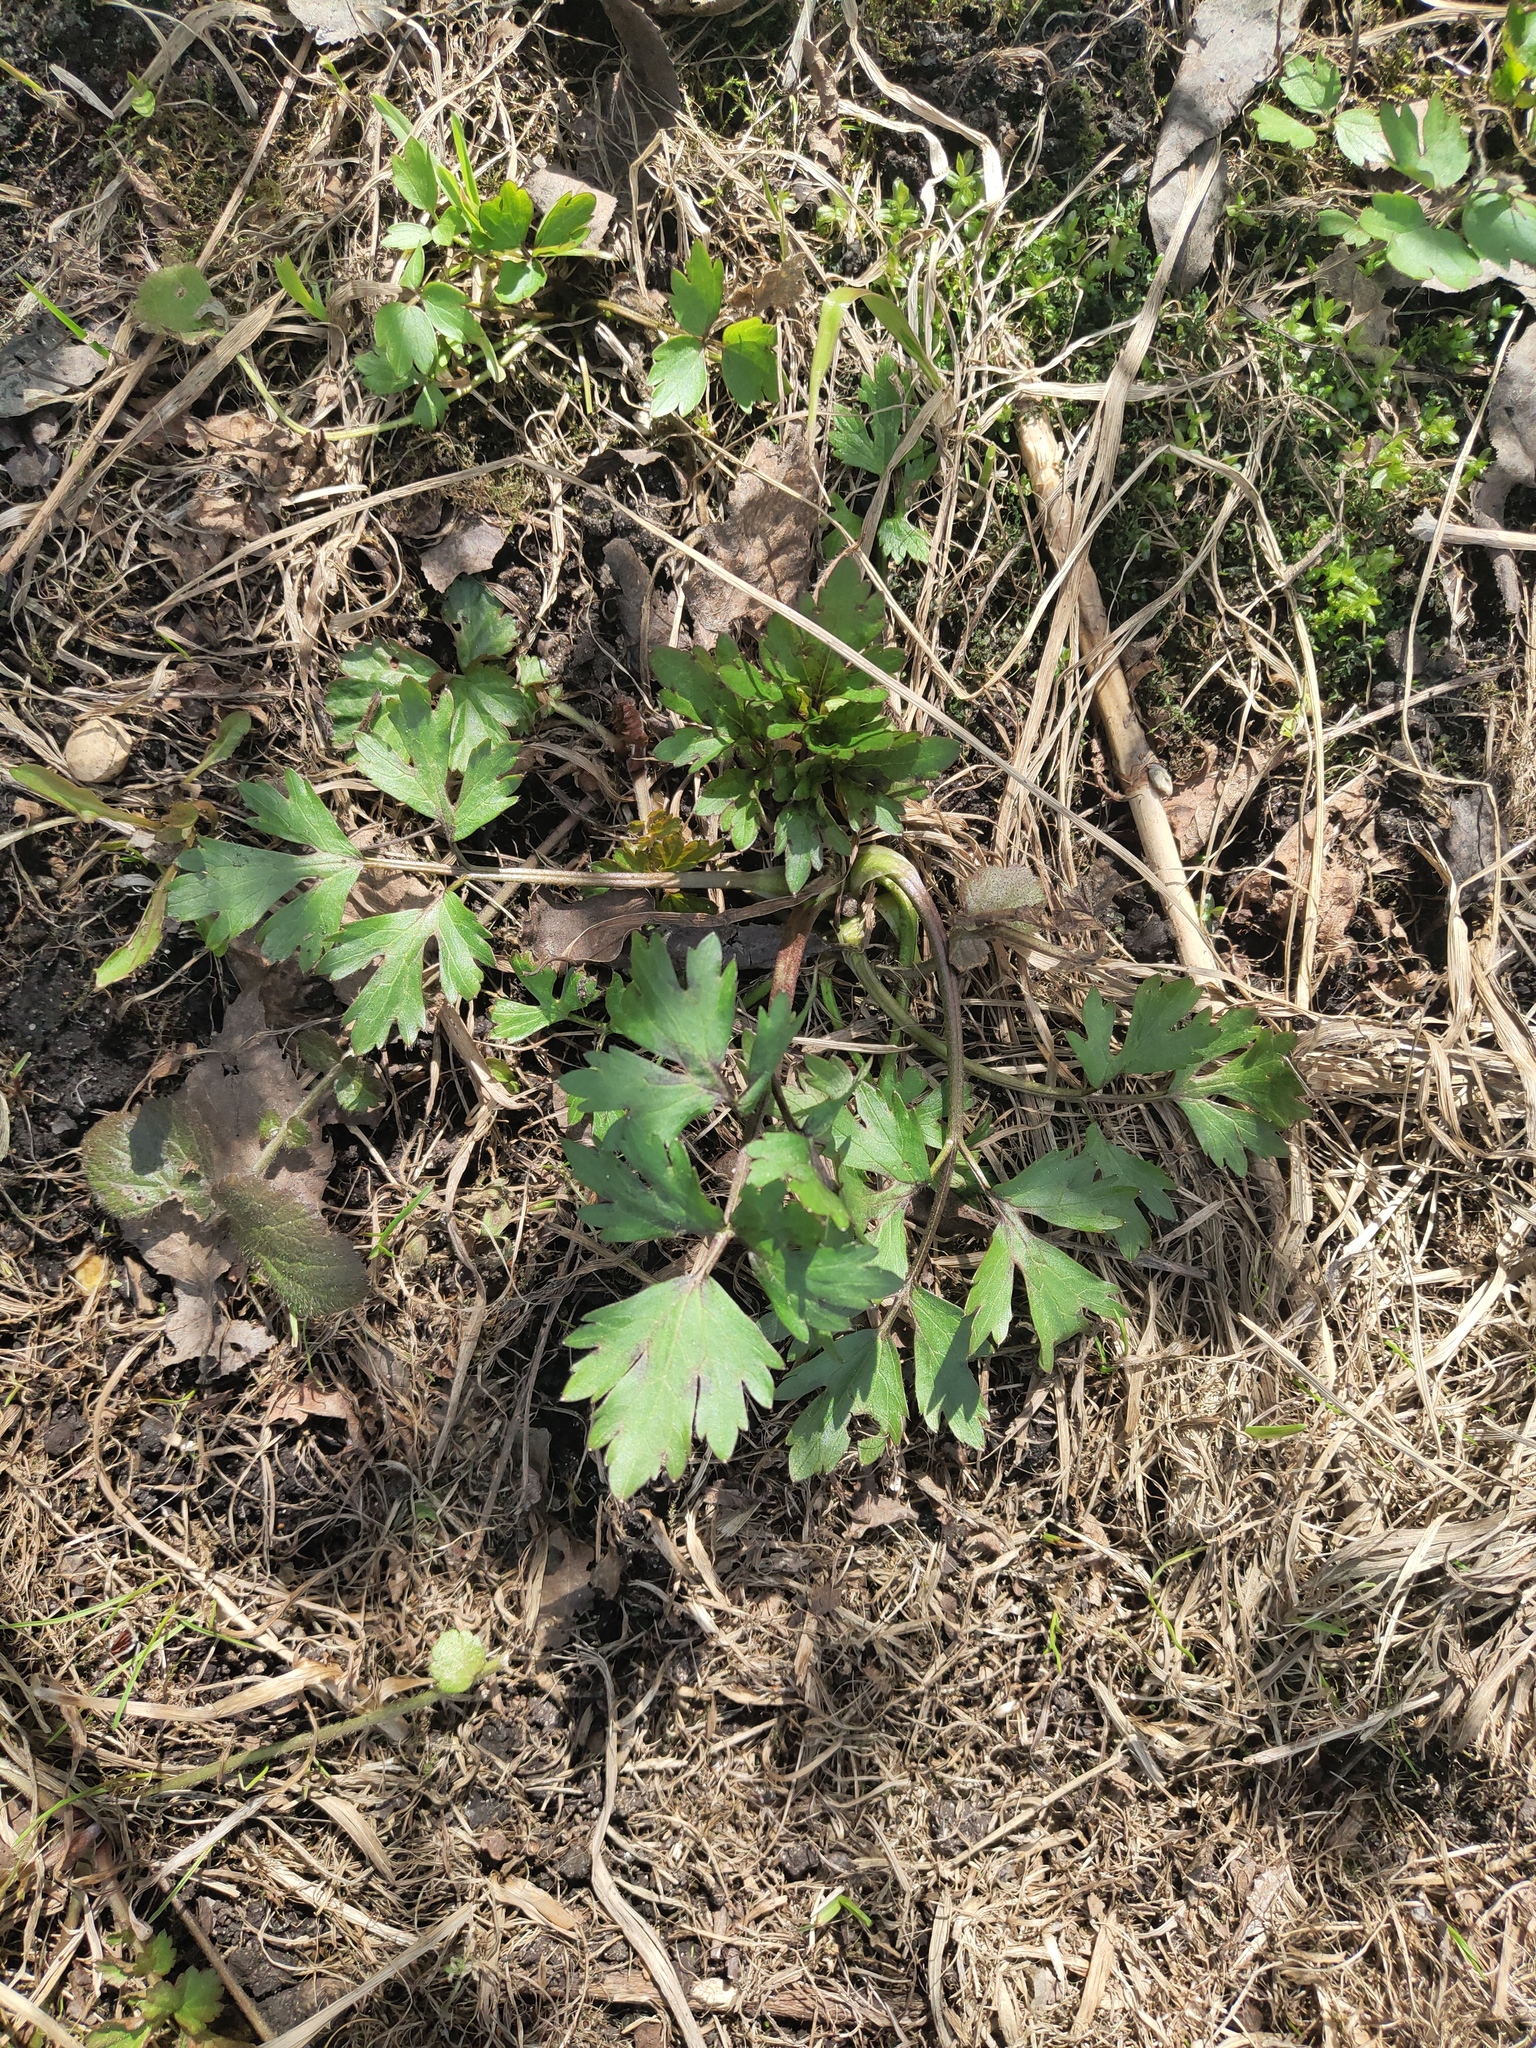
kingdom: Plantae
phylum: Tracheophyta
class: Magnoliopsida
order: Ranunculales
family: Ranunculaceae
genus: Ranunculus
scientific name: Ranunculus repens
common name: Creeping buttercup
